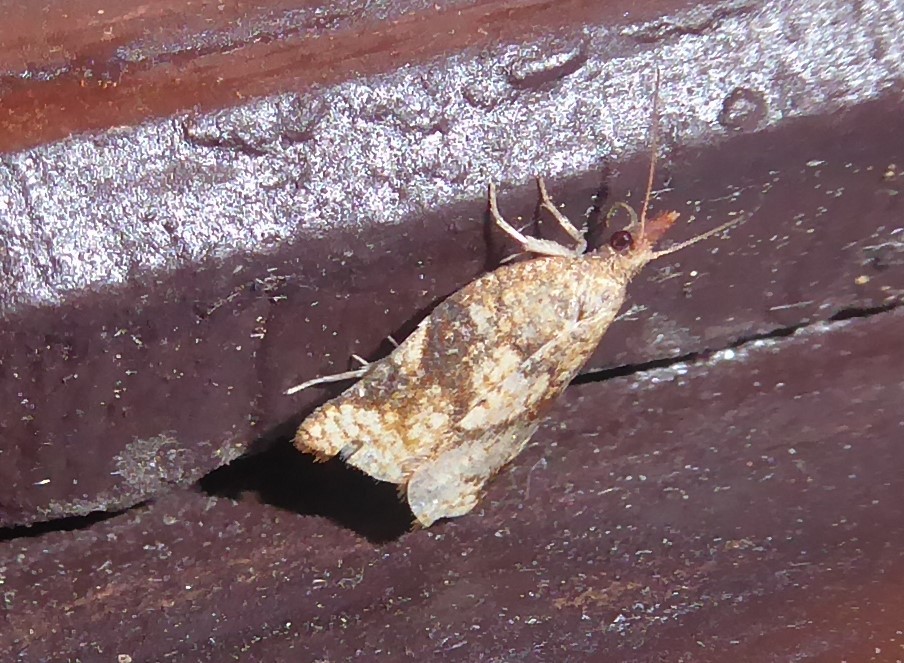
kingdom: Animalia
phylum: Arthropoda
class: Insecta
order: Lepidoptera
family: Tortricidae
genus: Catamacta
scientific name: Catamacta gavisana
